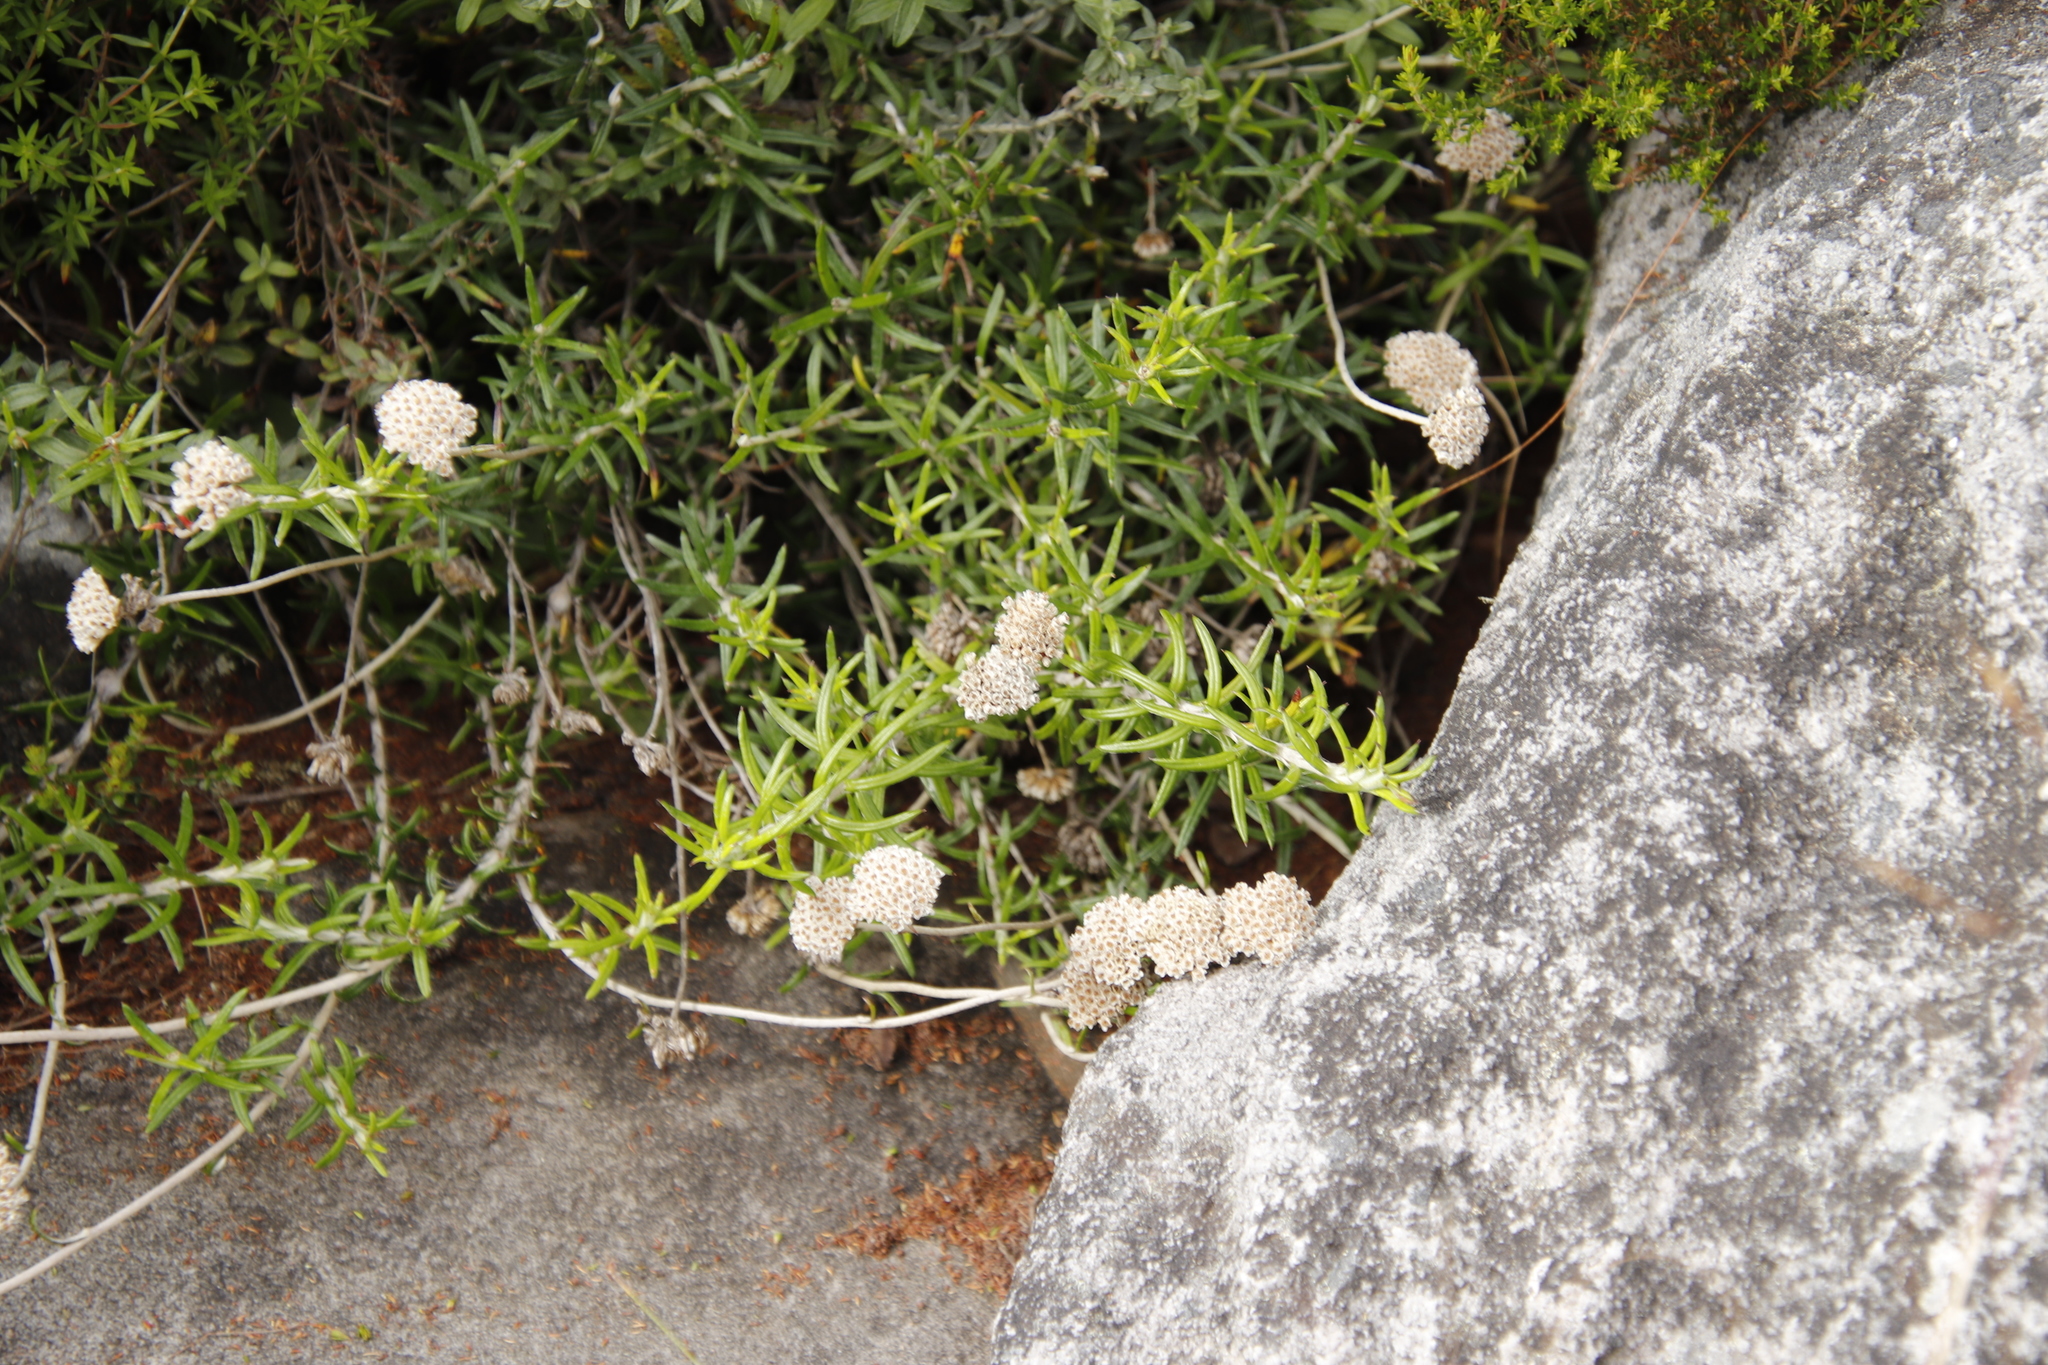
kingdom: Plantae
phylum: Tracheophyta
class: Magnoliopsida
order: Asterales
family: Asteraceae
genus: Anaxeton
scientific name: Anaxeton arborescens
